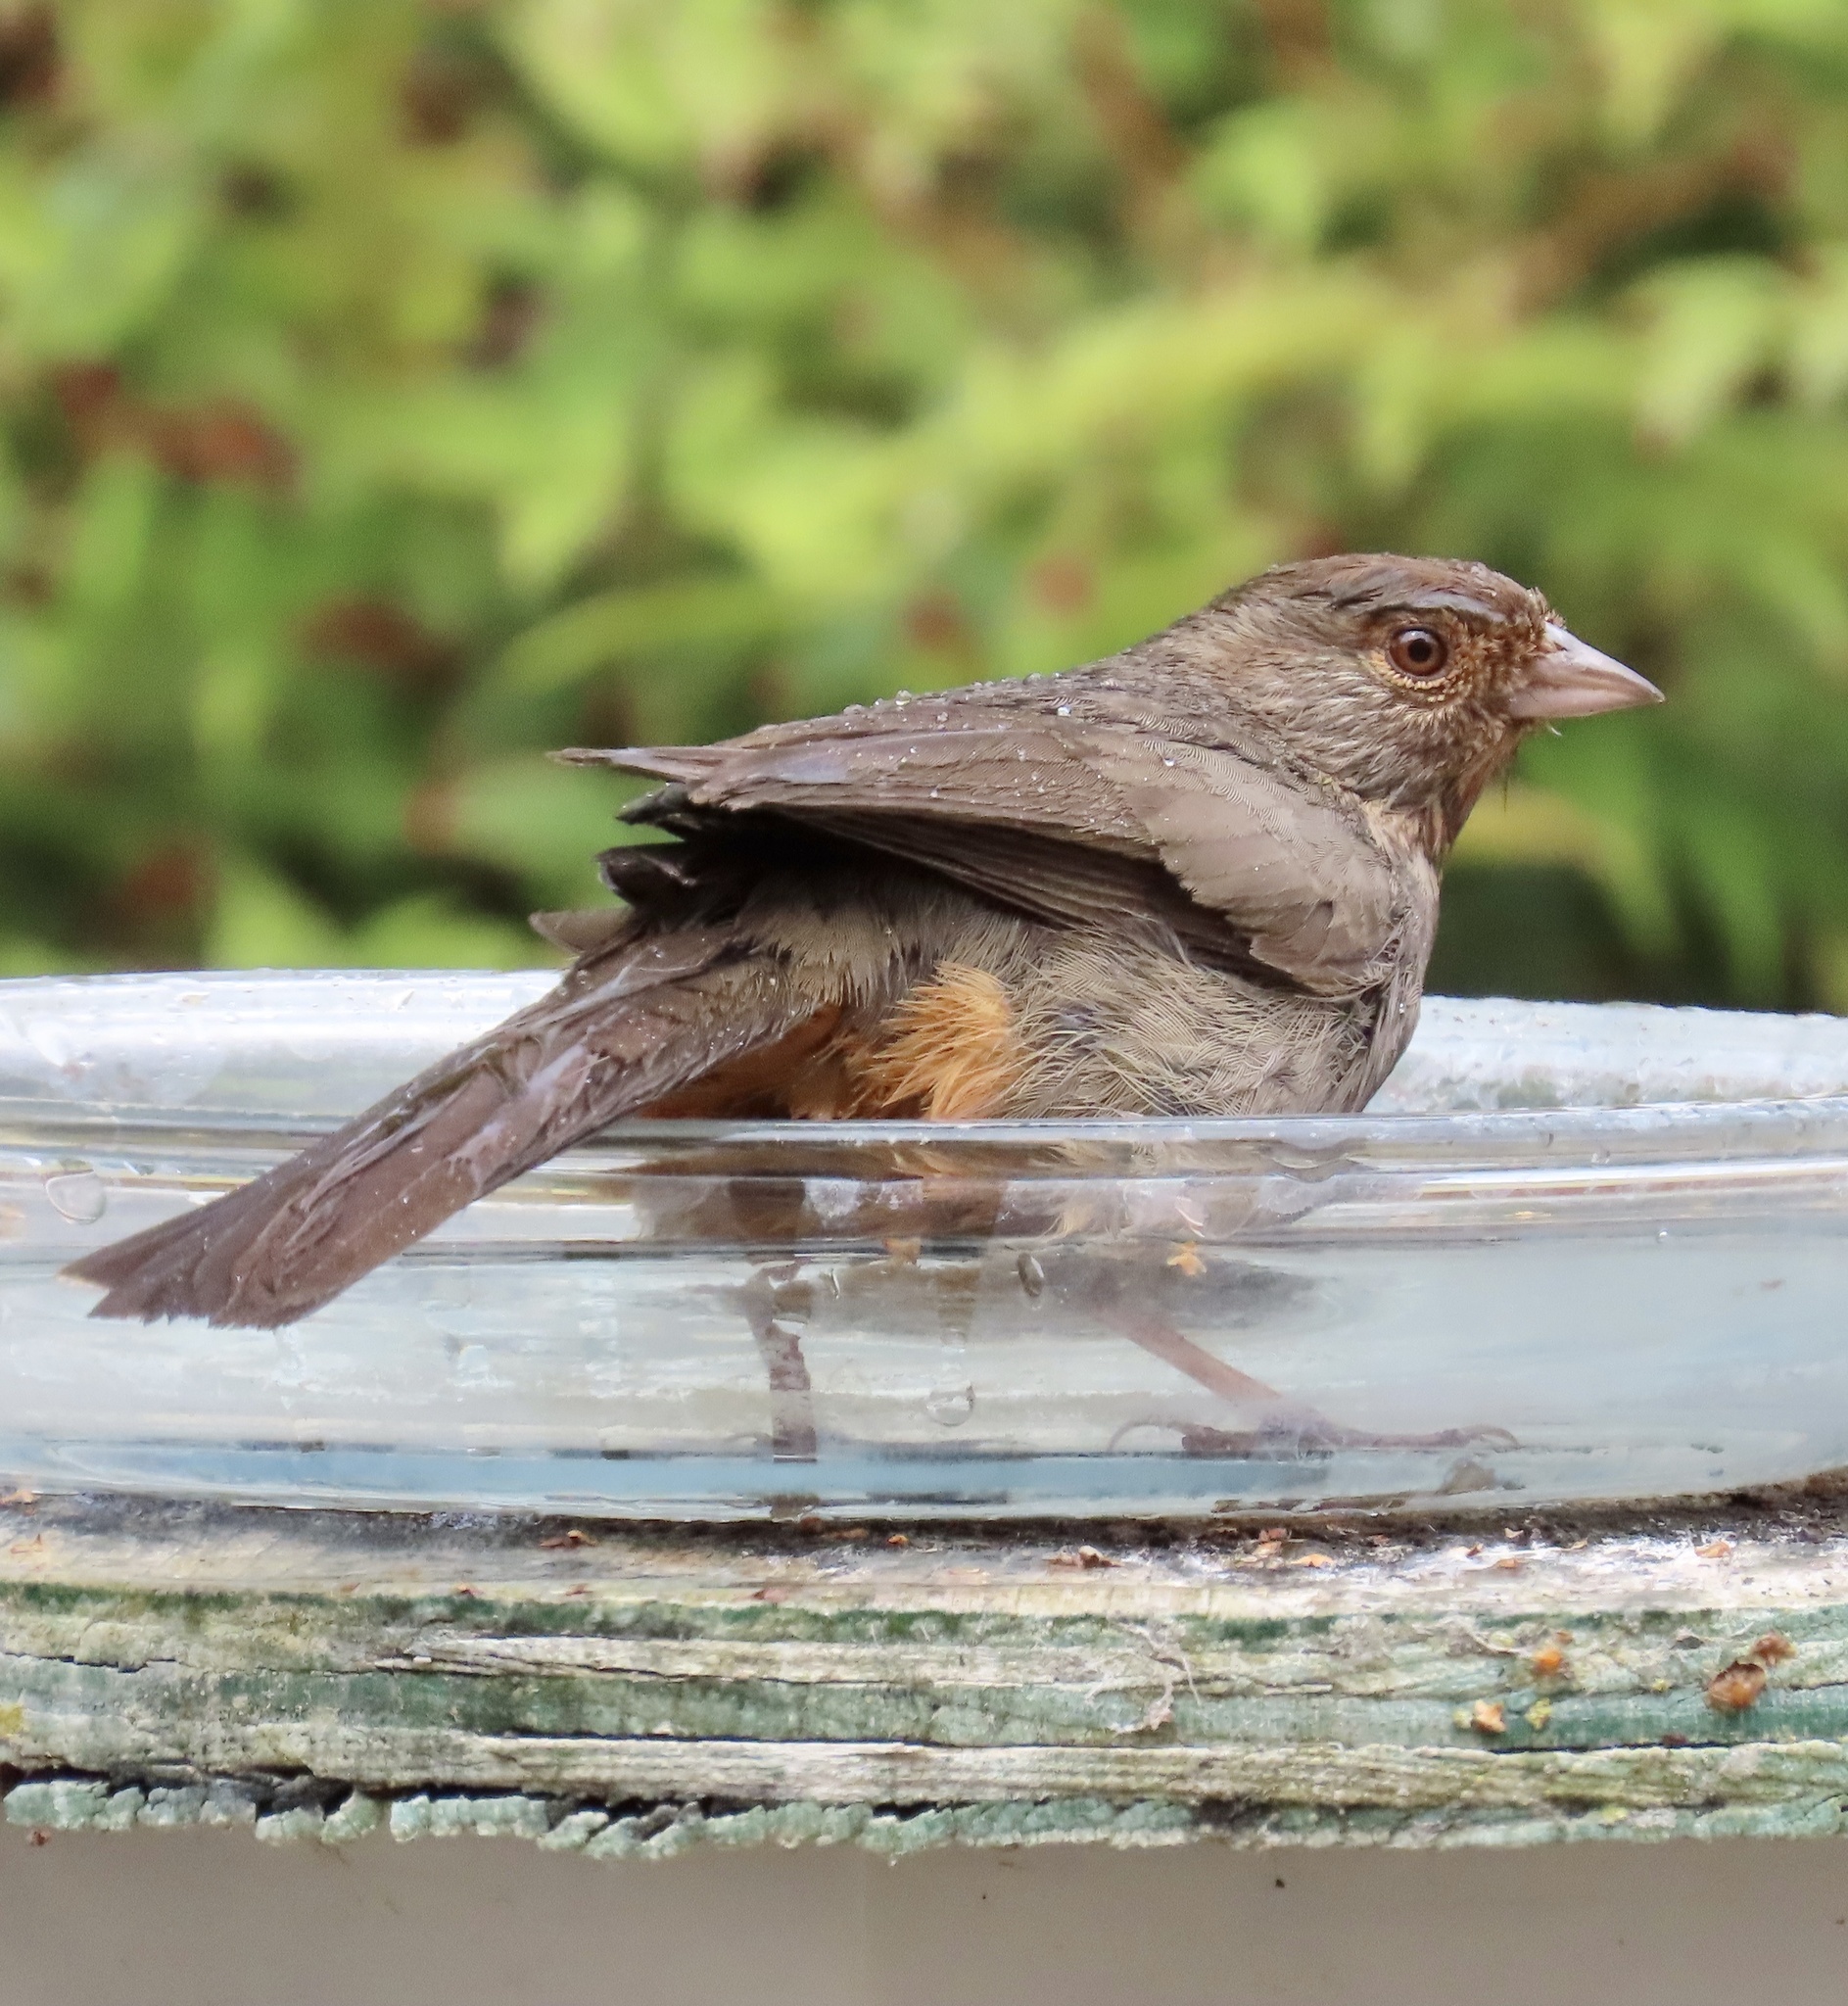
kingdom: Animalia
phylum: Chordata
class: Aves
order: Passeriformes
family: Passerellidae
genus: Melozone
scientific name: Melozone crissalis
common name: California towhee
